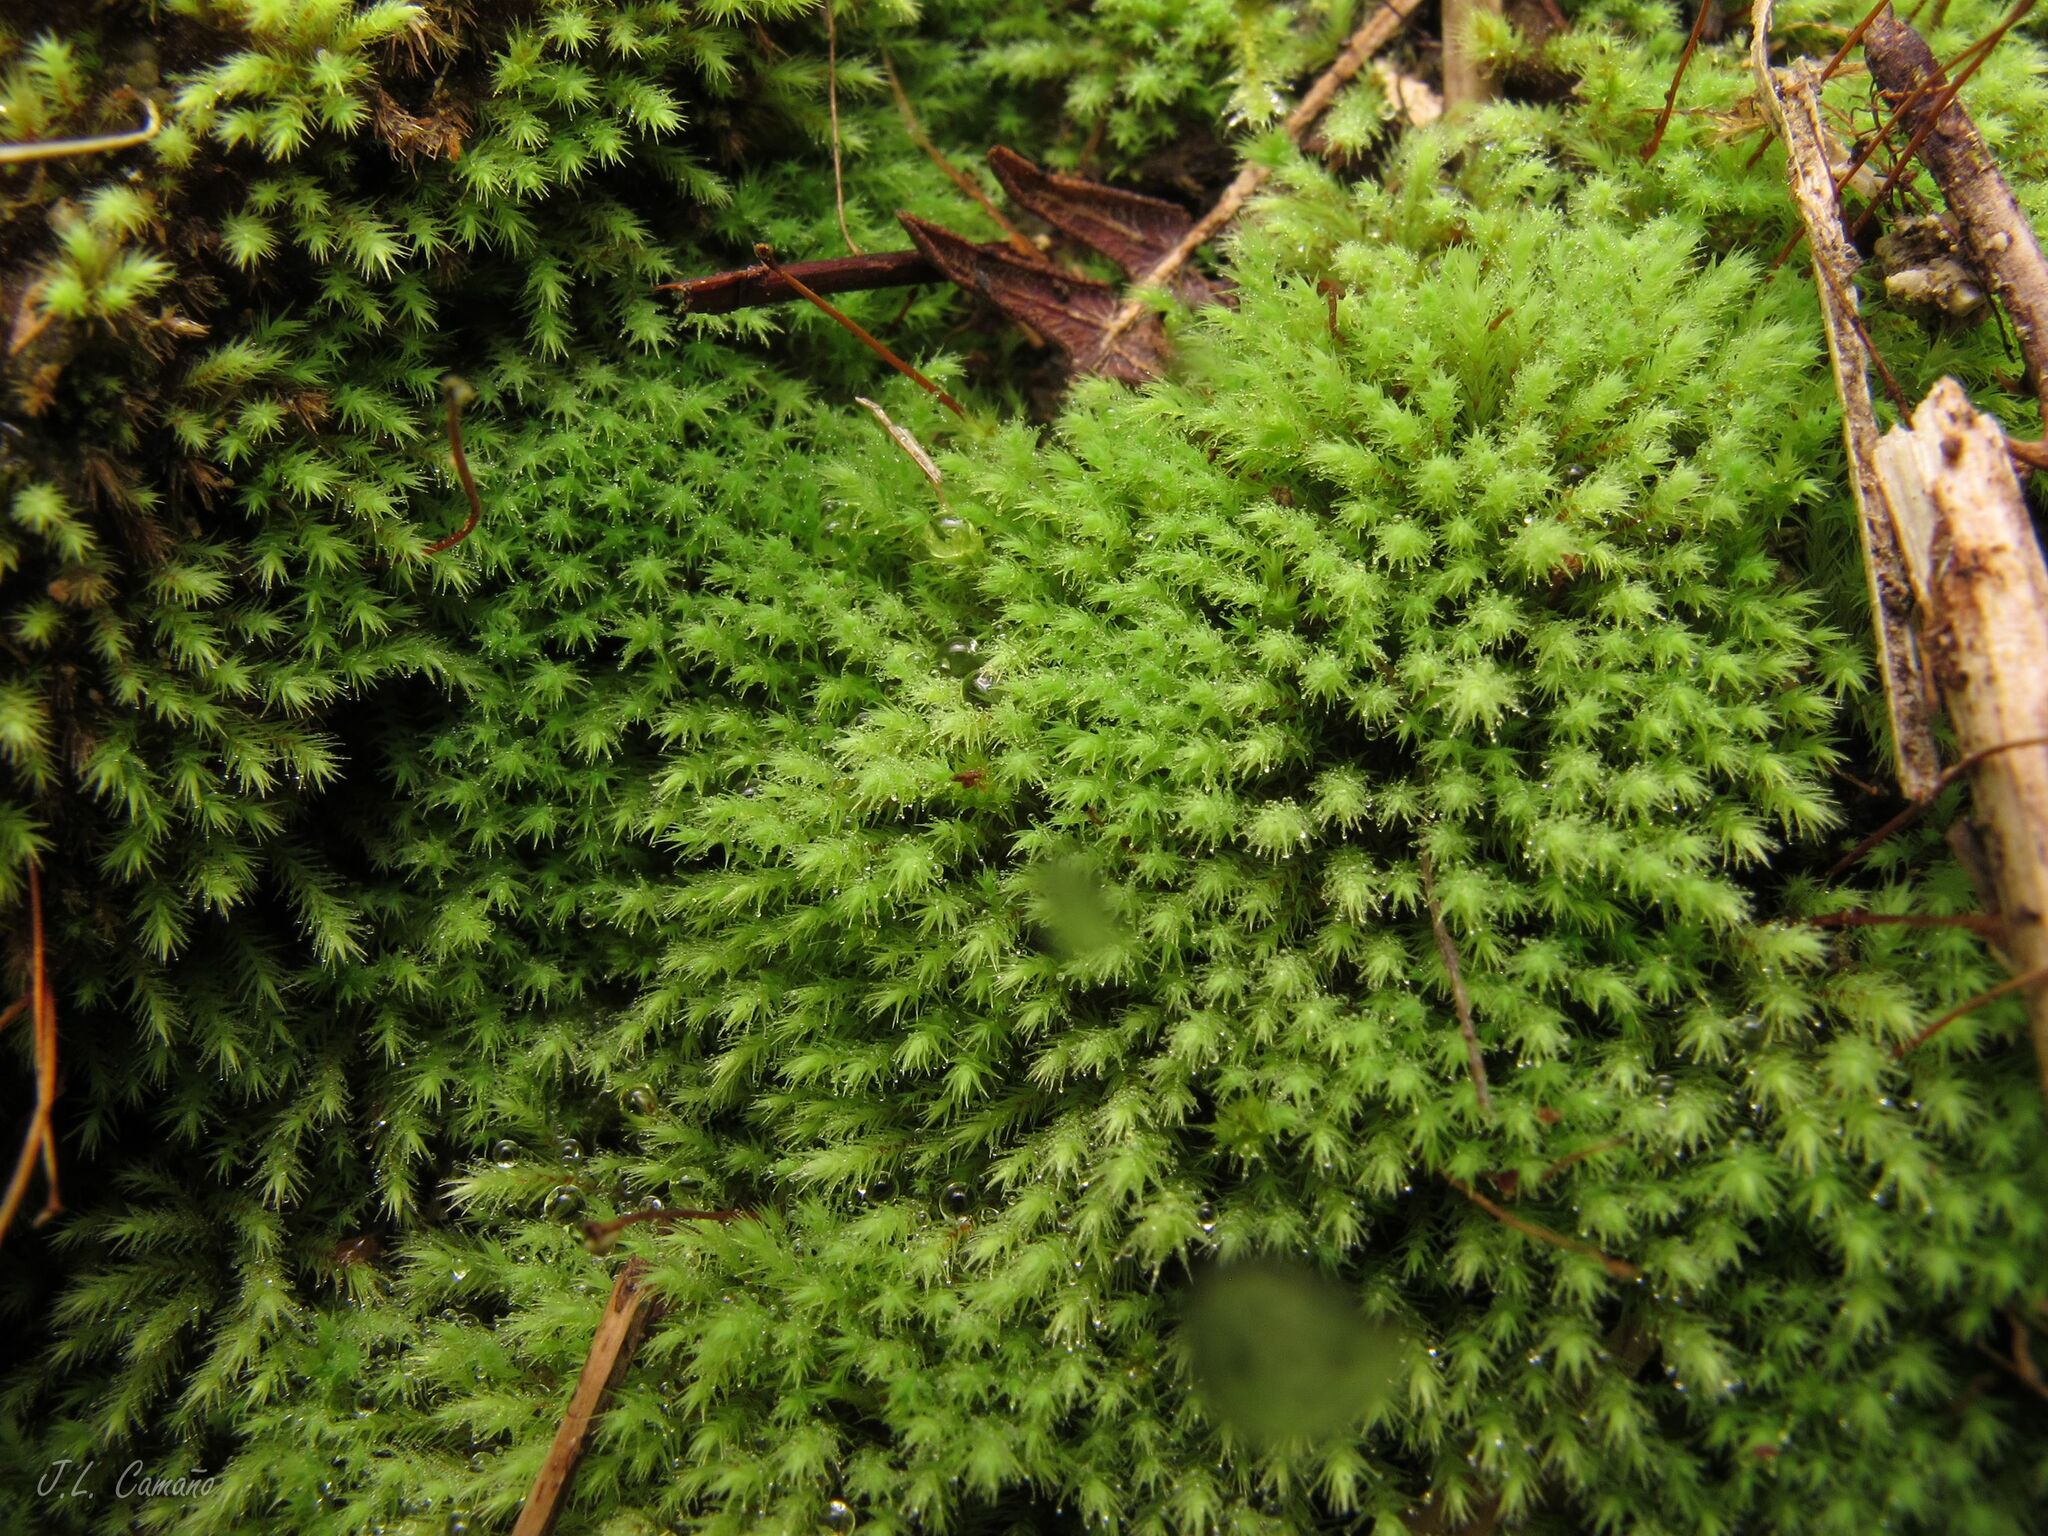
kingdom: Plantae
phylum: Bryophyta
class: Bryopsida
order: Bartramiales
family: Bartramiaceae
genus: Philonotis
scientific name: Philonotis rigida
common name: Rigid apple-moss
